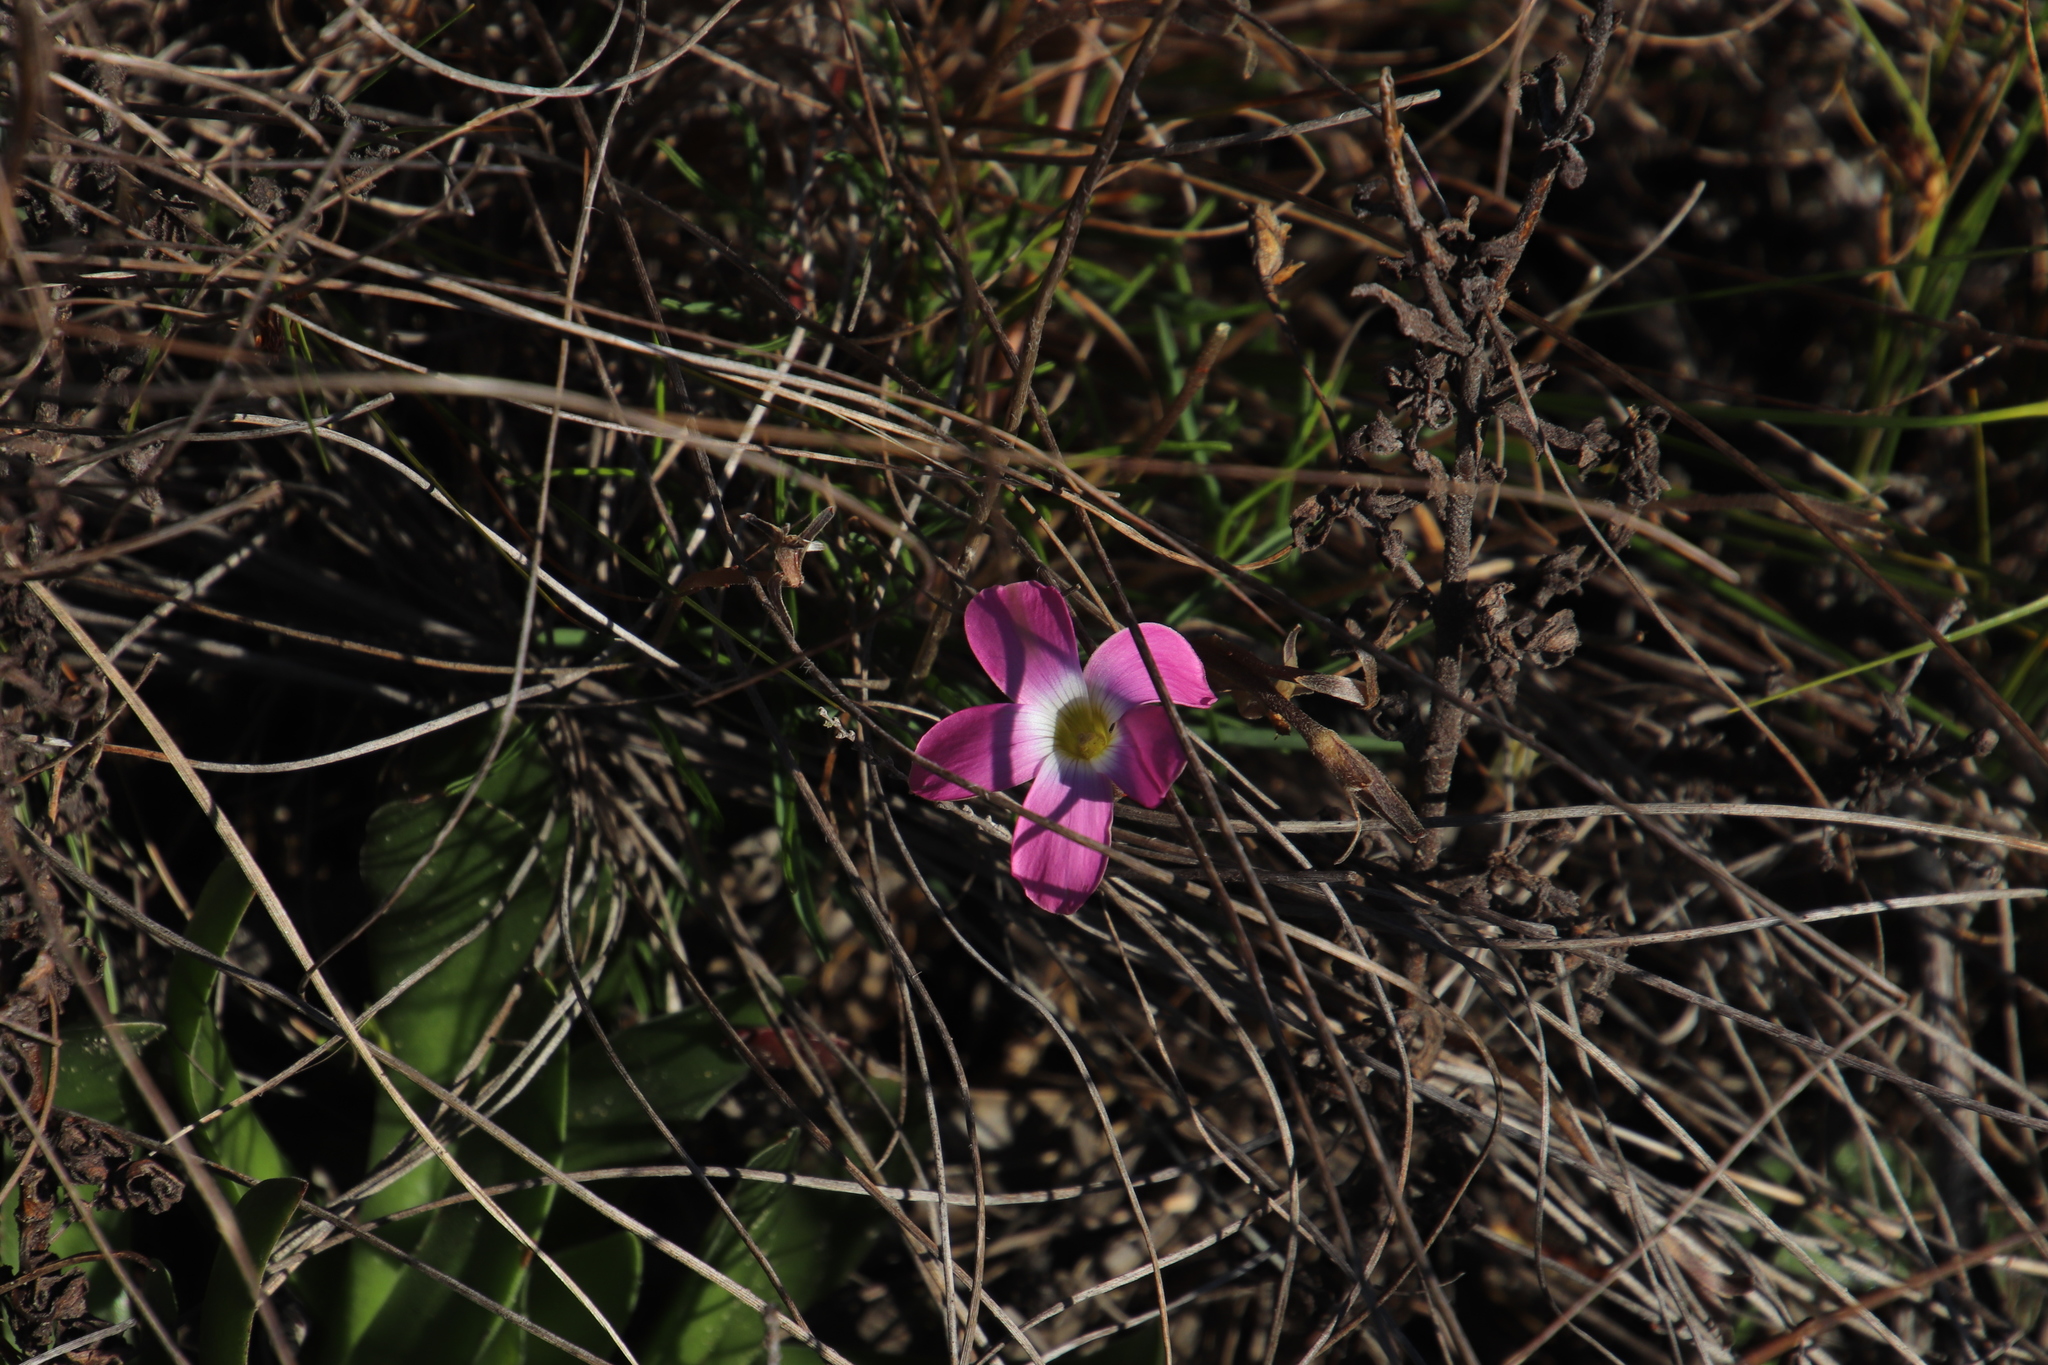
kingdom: Plantae
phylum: Tracheophyta
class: Magnoliopsida
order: Oxalidales
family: Oxalidaceae
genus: Oxalis
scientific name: Oxalis polyphylla
